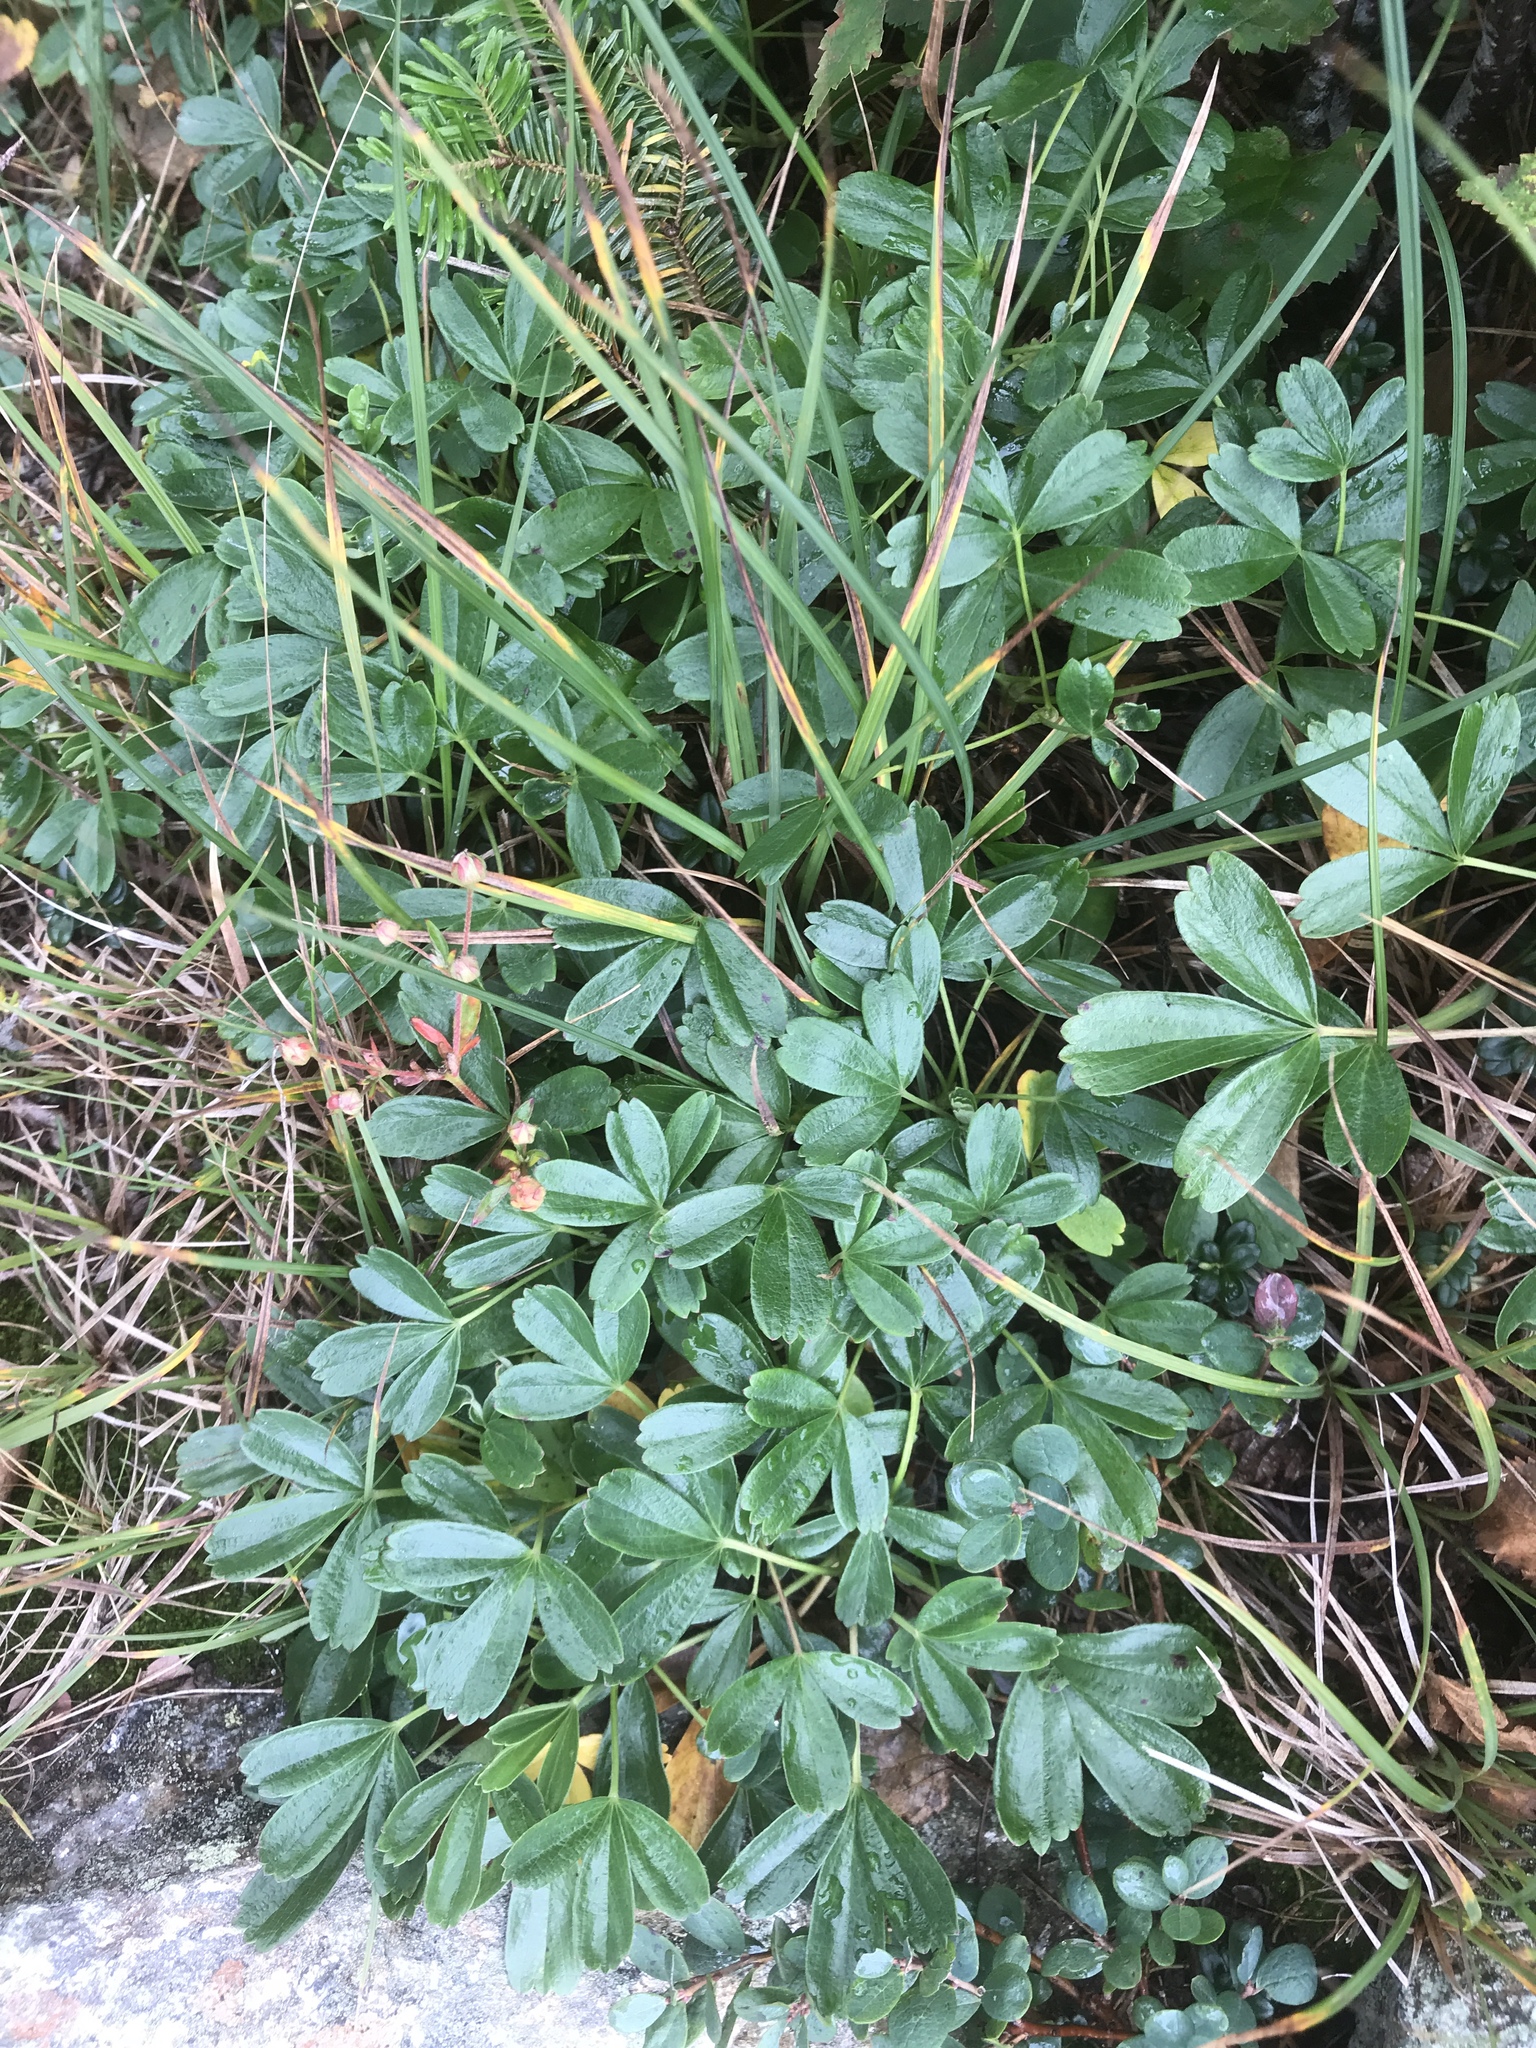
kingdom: Plantae
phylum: Tracheophyta
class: Magnoliopsida
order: Rosales
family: Rosaceae
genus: Sibbaldia
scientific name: Sibbaldia tridentata
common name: Three-toothed cinquefoil
